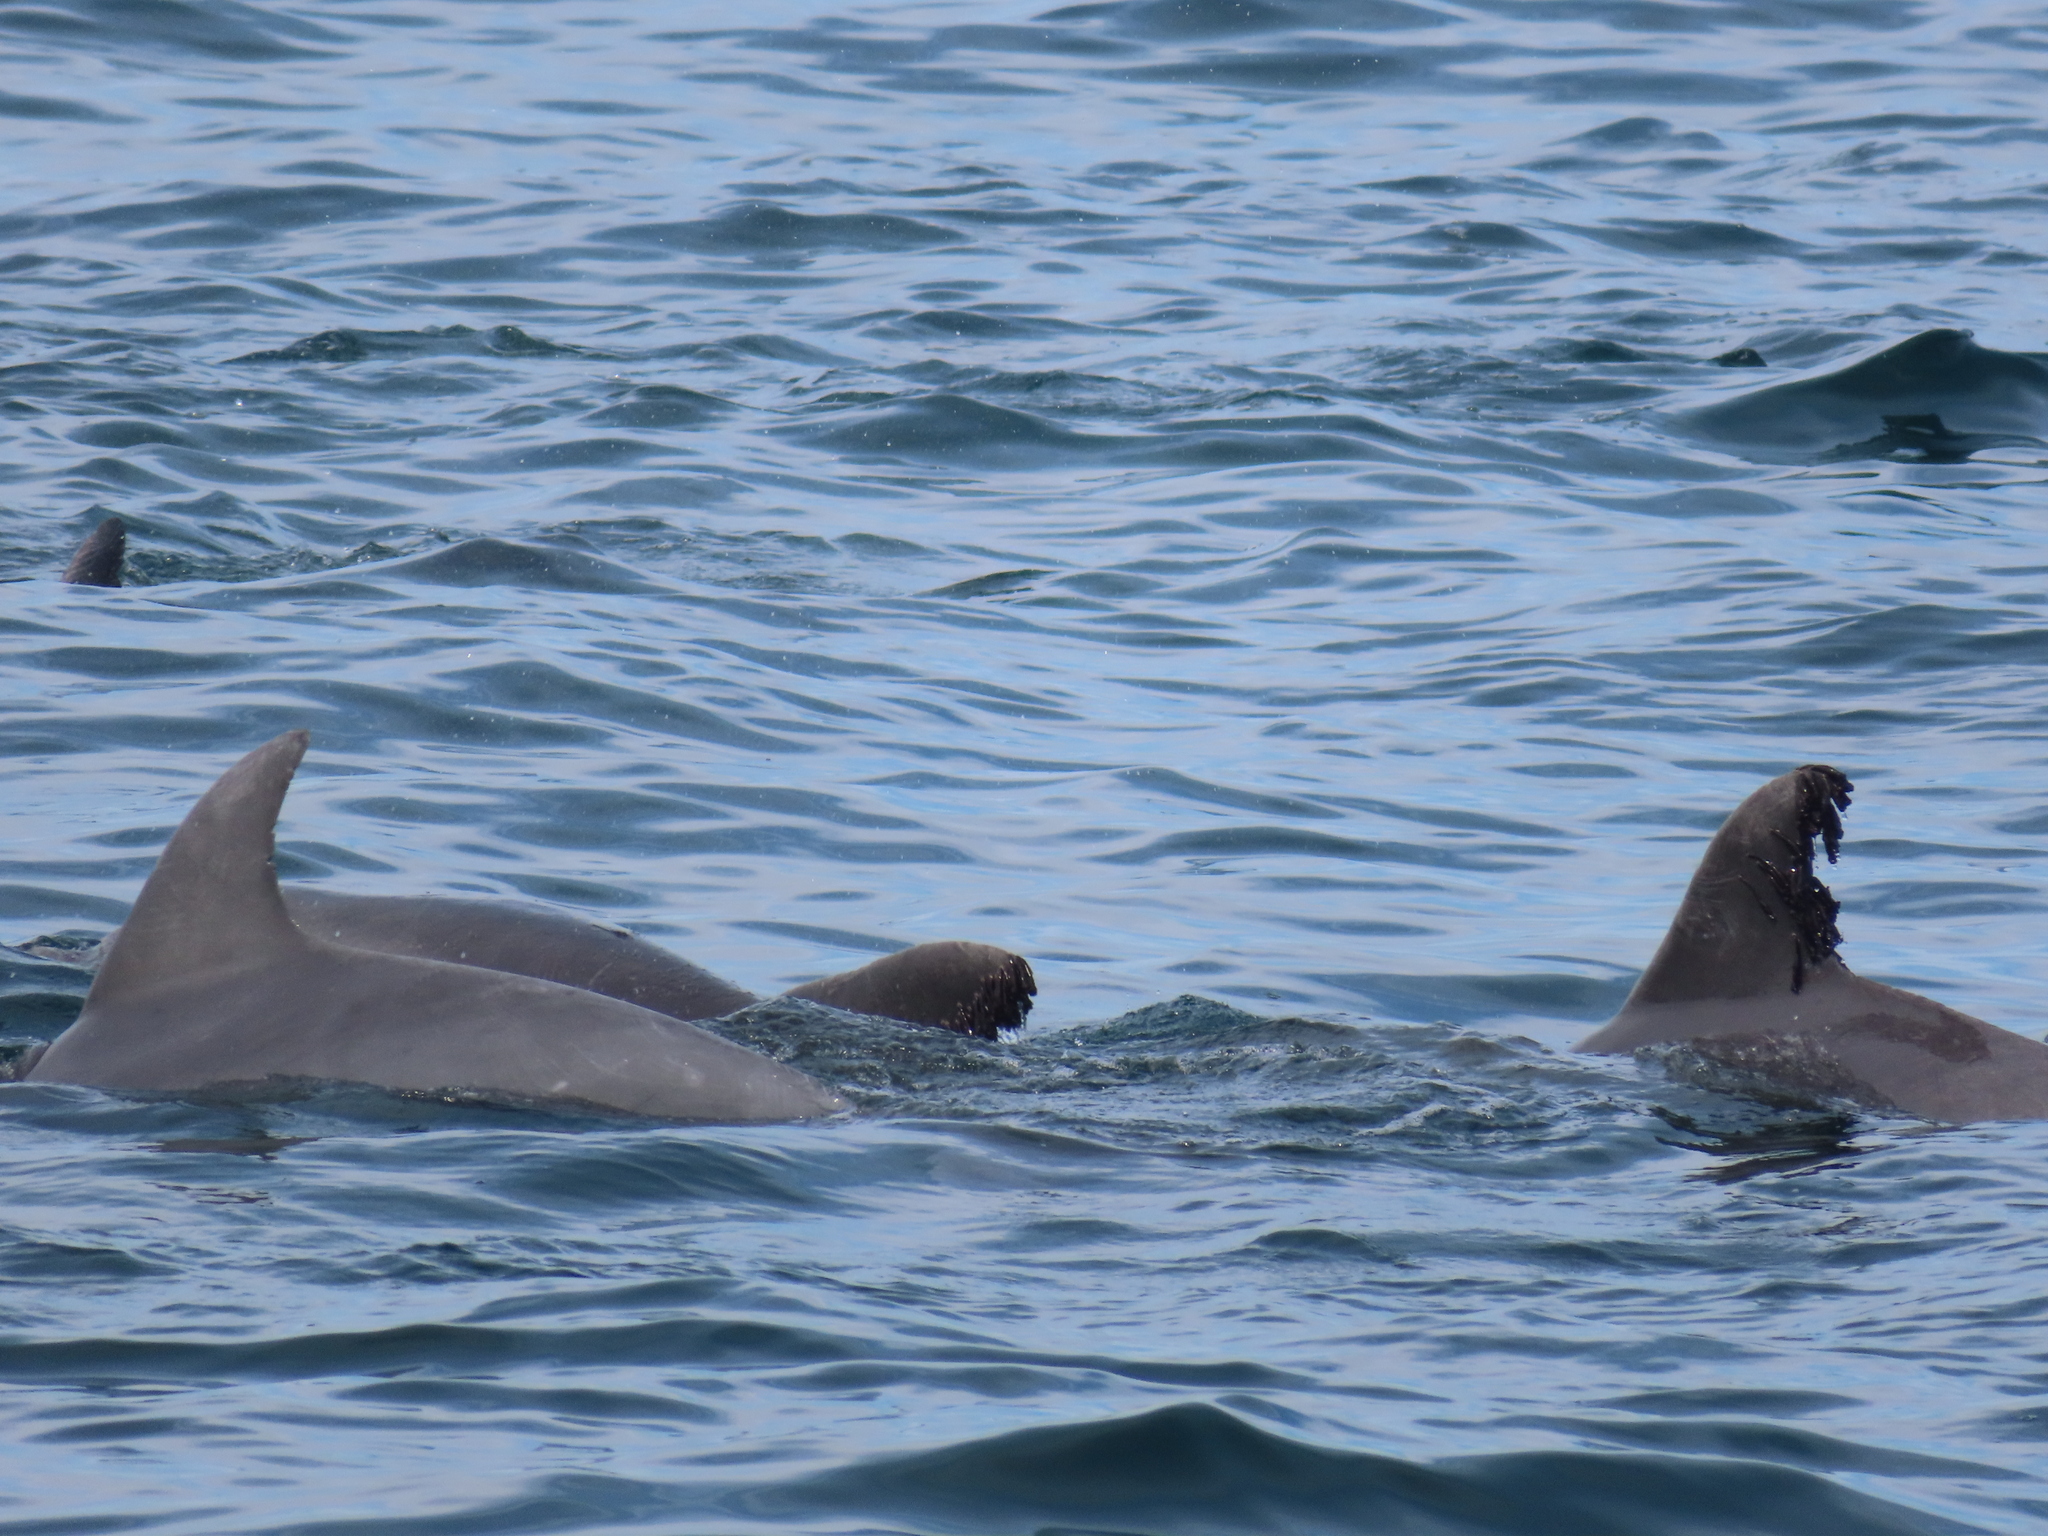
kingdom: Animalia
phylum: Chordata
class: Mammalia
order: Cetacea
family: Delphinidae
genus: Tursiops
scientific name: Tursiops truncatus
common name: Bottlenose dolphin
